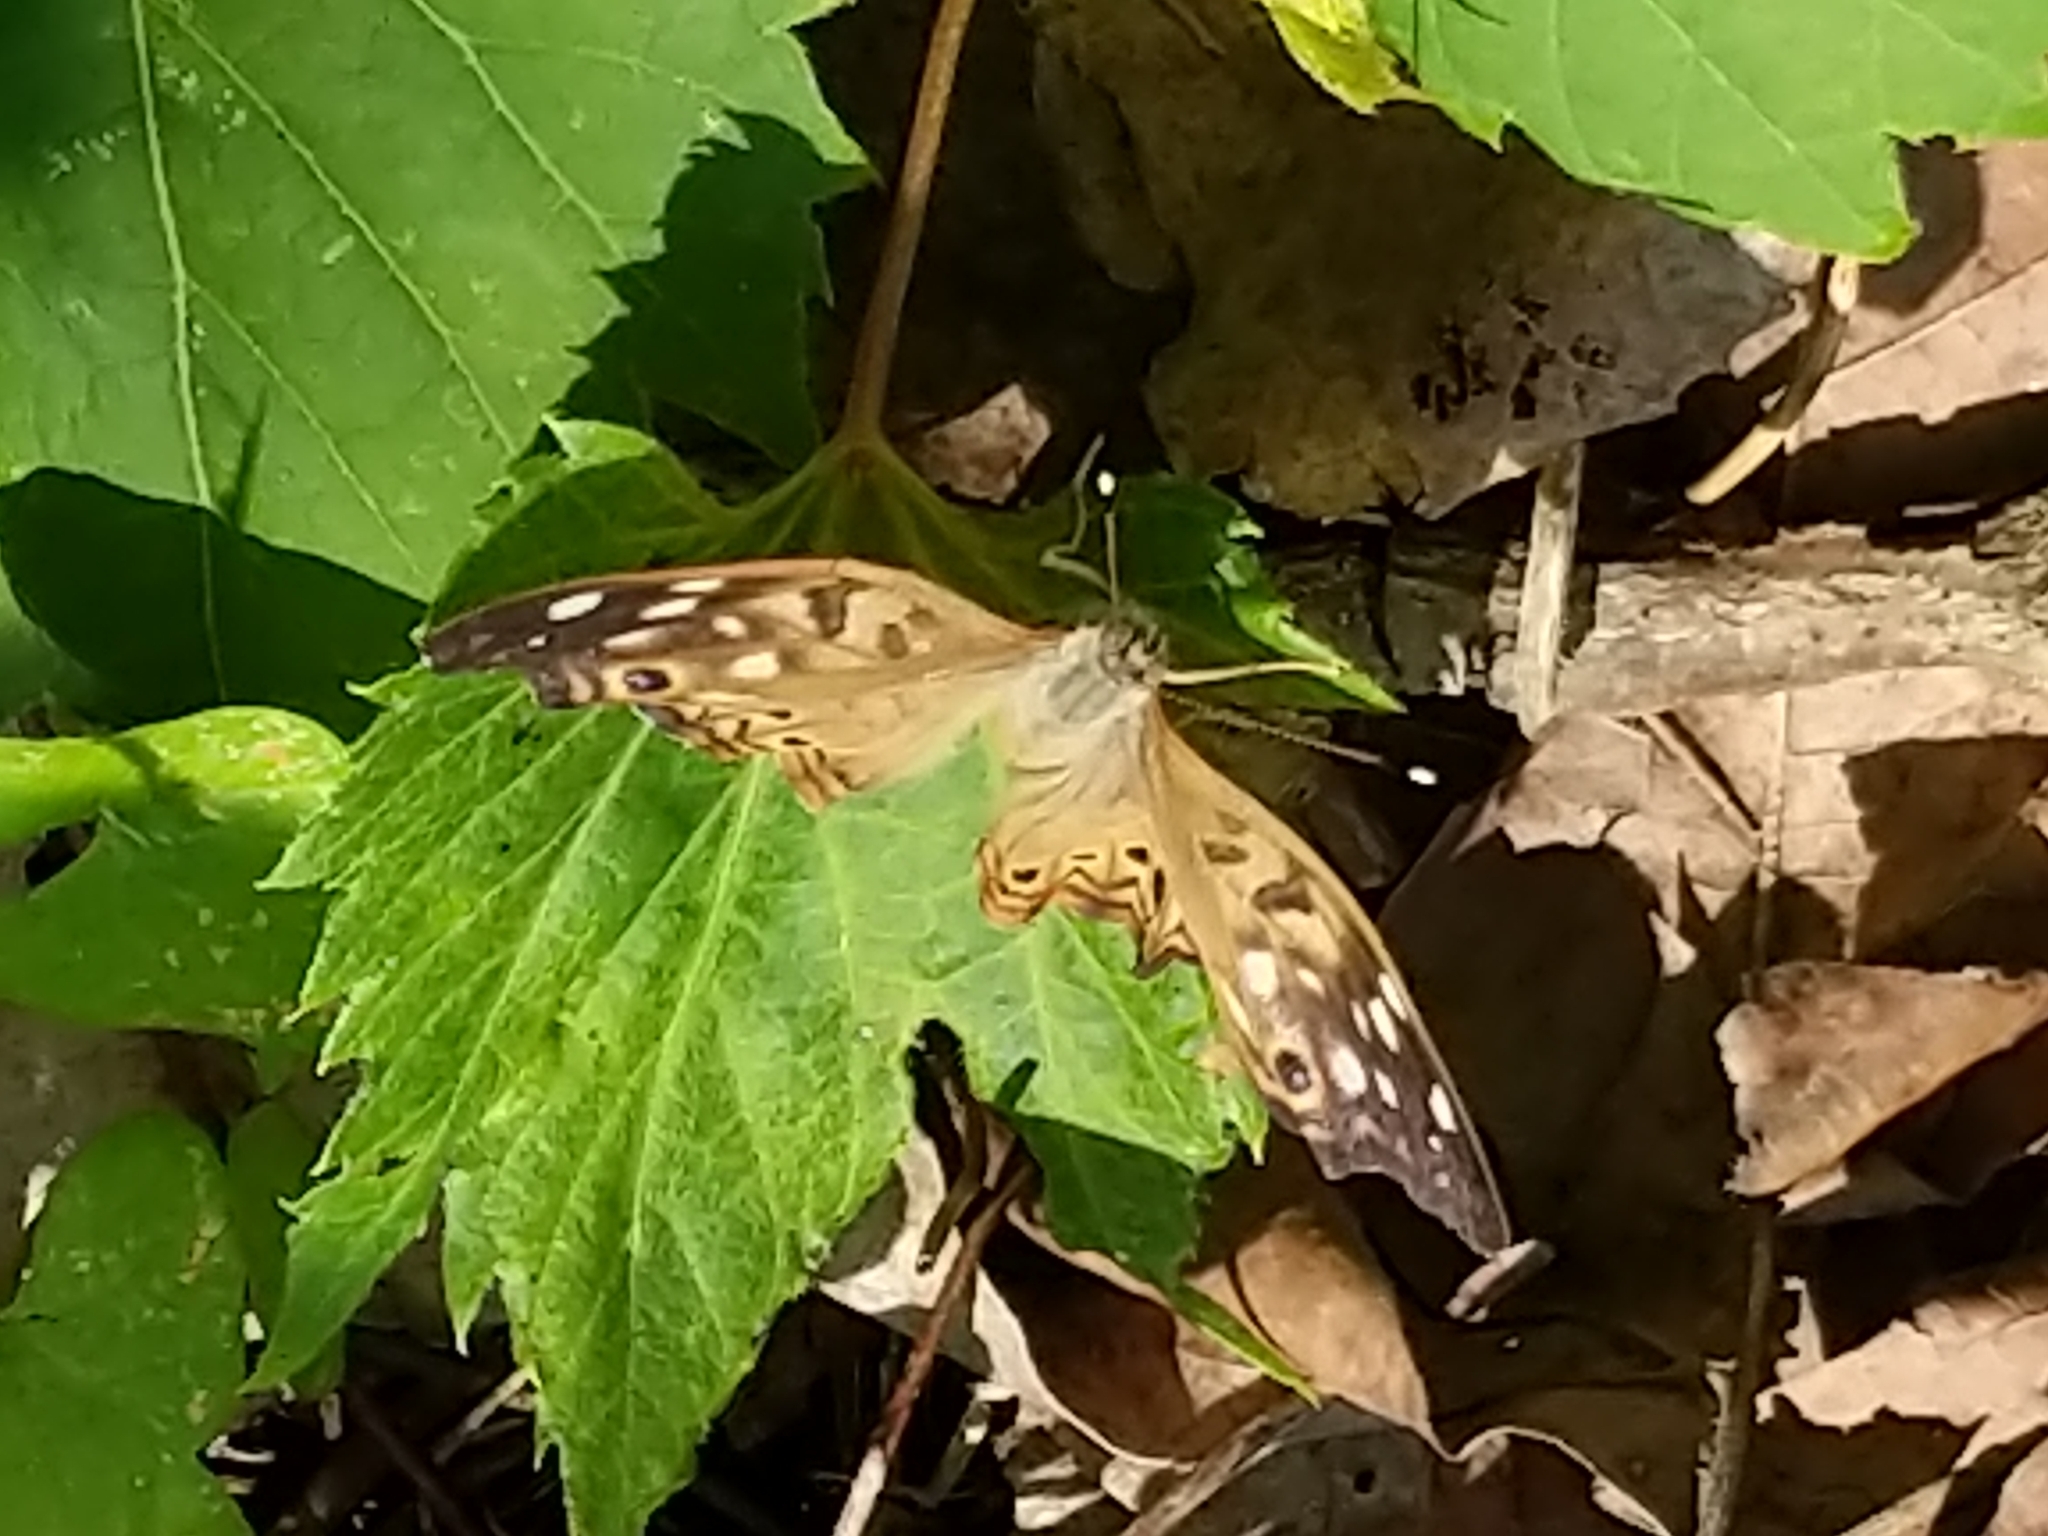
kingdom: Animalia
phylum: Arthropoda
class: Insecta
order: Lepidoptera
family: Nymphalidae
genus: Asterocampa
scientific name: Asterocampa celtis
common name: Hackberry emperor
